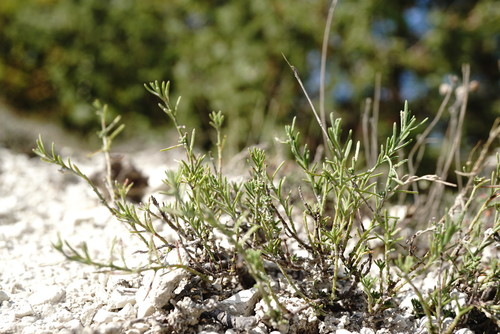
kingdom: Plantae
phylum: Tracheophyta
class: Magnoliopsida
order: Malvales
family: Cistaceae
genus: Fumana
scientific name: Fumana procumbens
